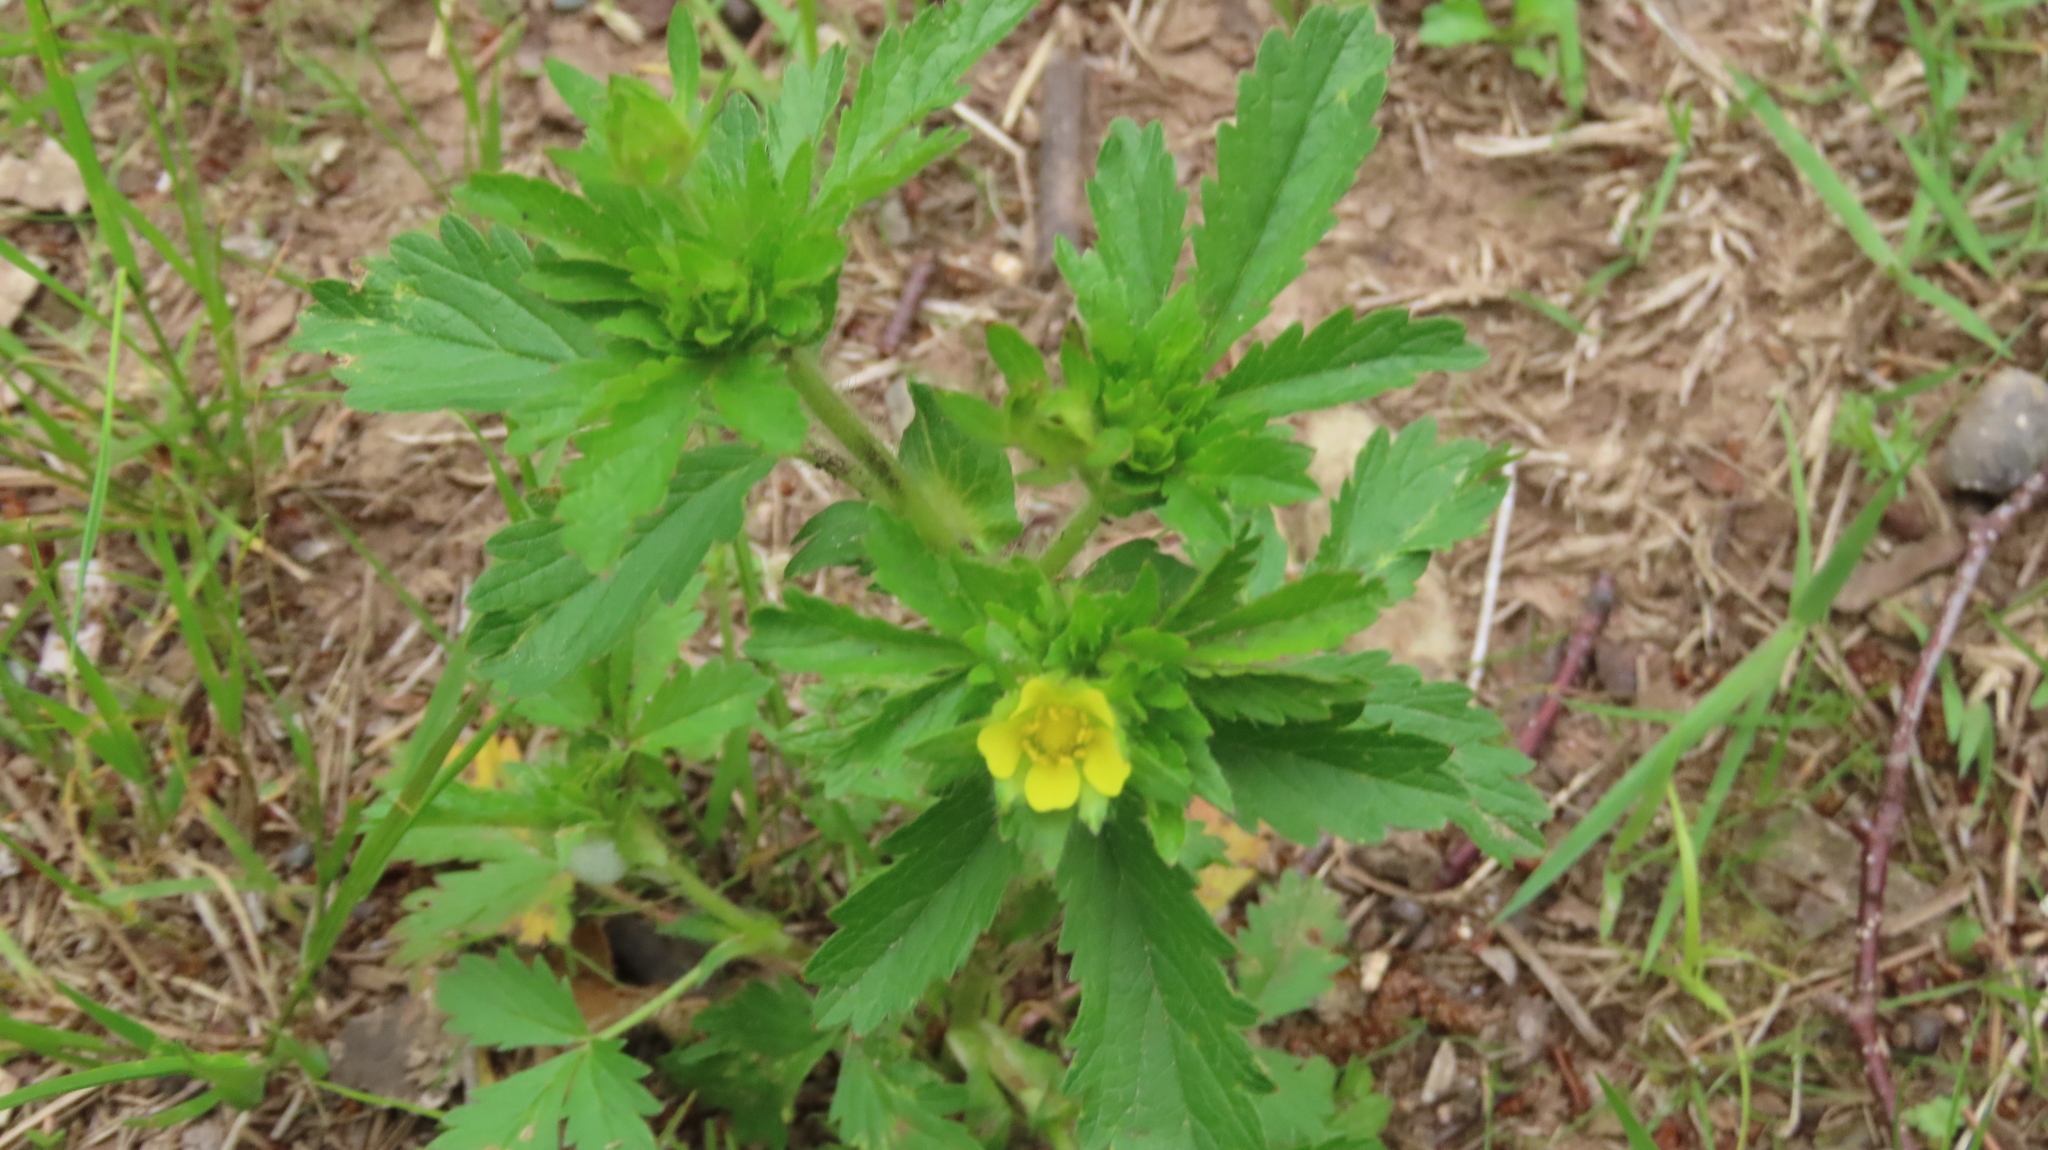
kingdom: Plantae
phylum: Tracheophyta
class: Magnoliopsida
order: Rosales
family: Rosaceae
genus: Potentilla
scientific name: Potentilla norvegica
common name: Ternate-leaved cinquefoil
